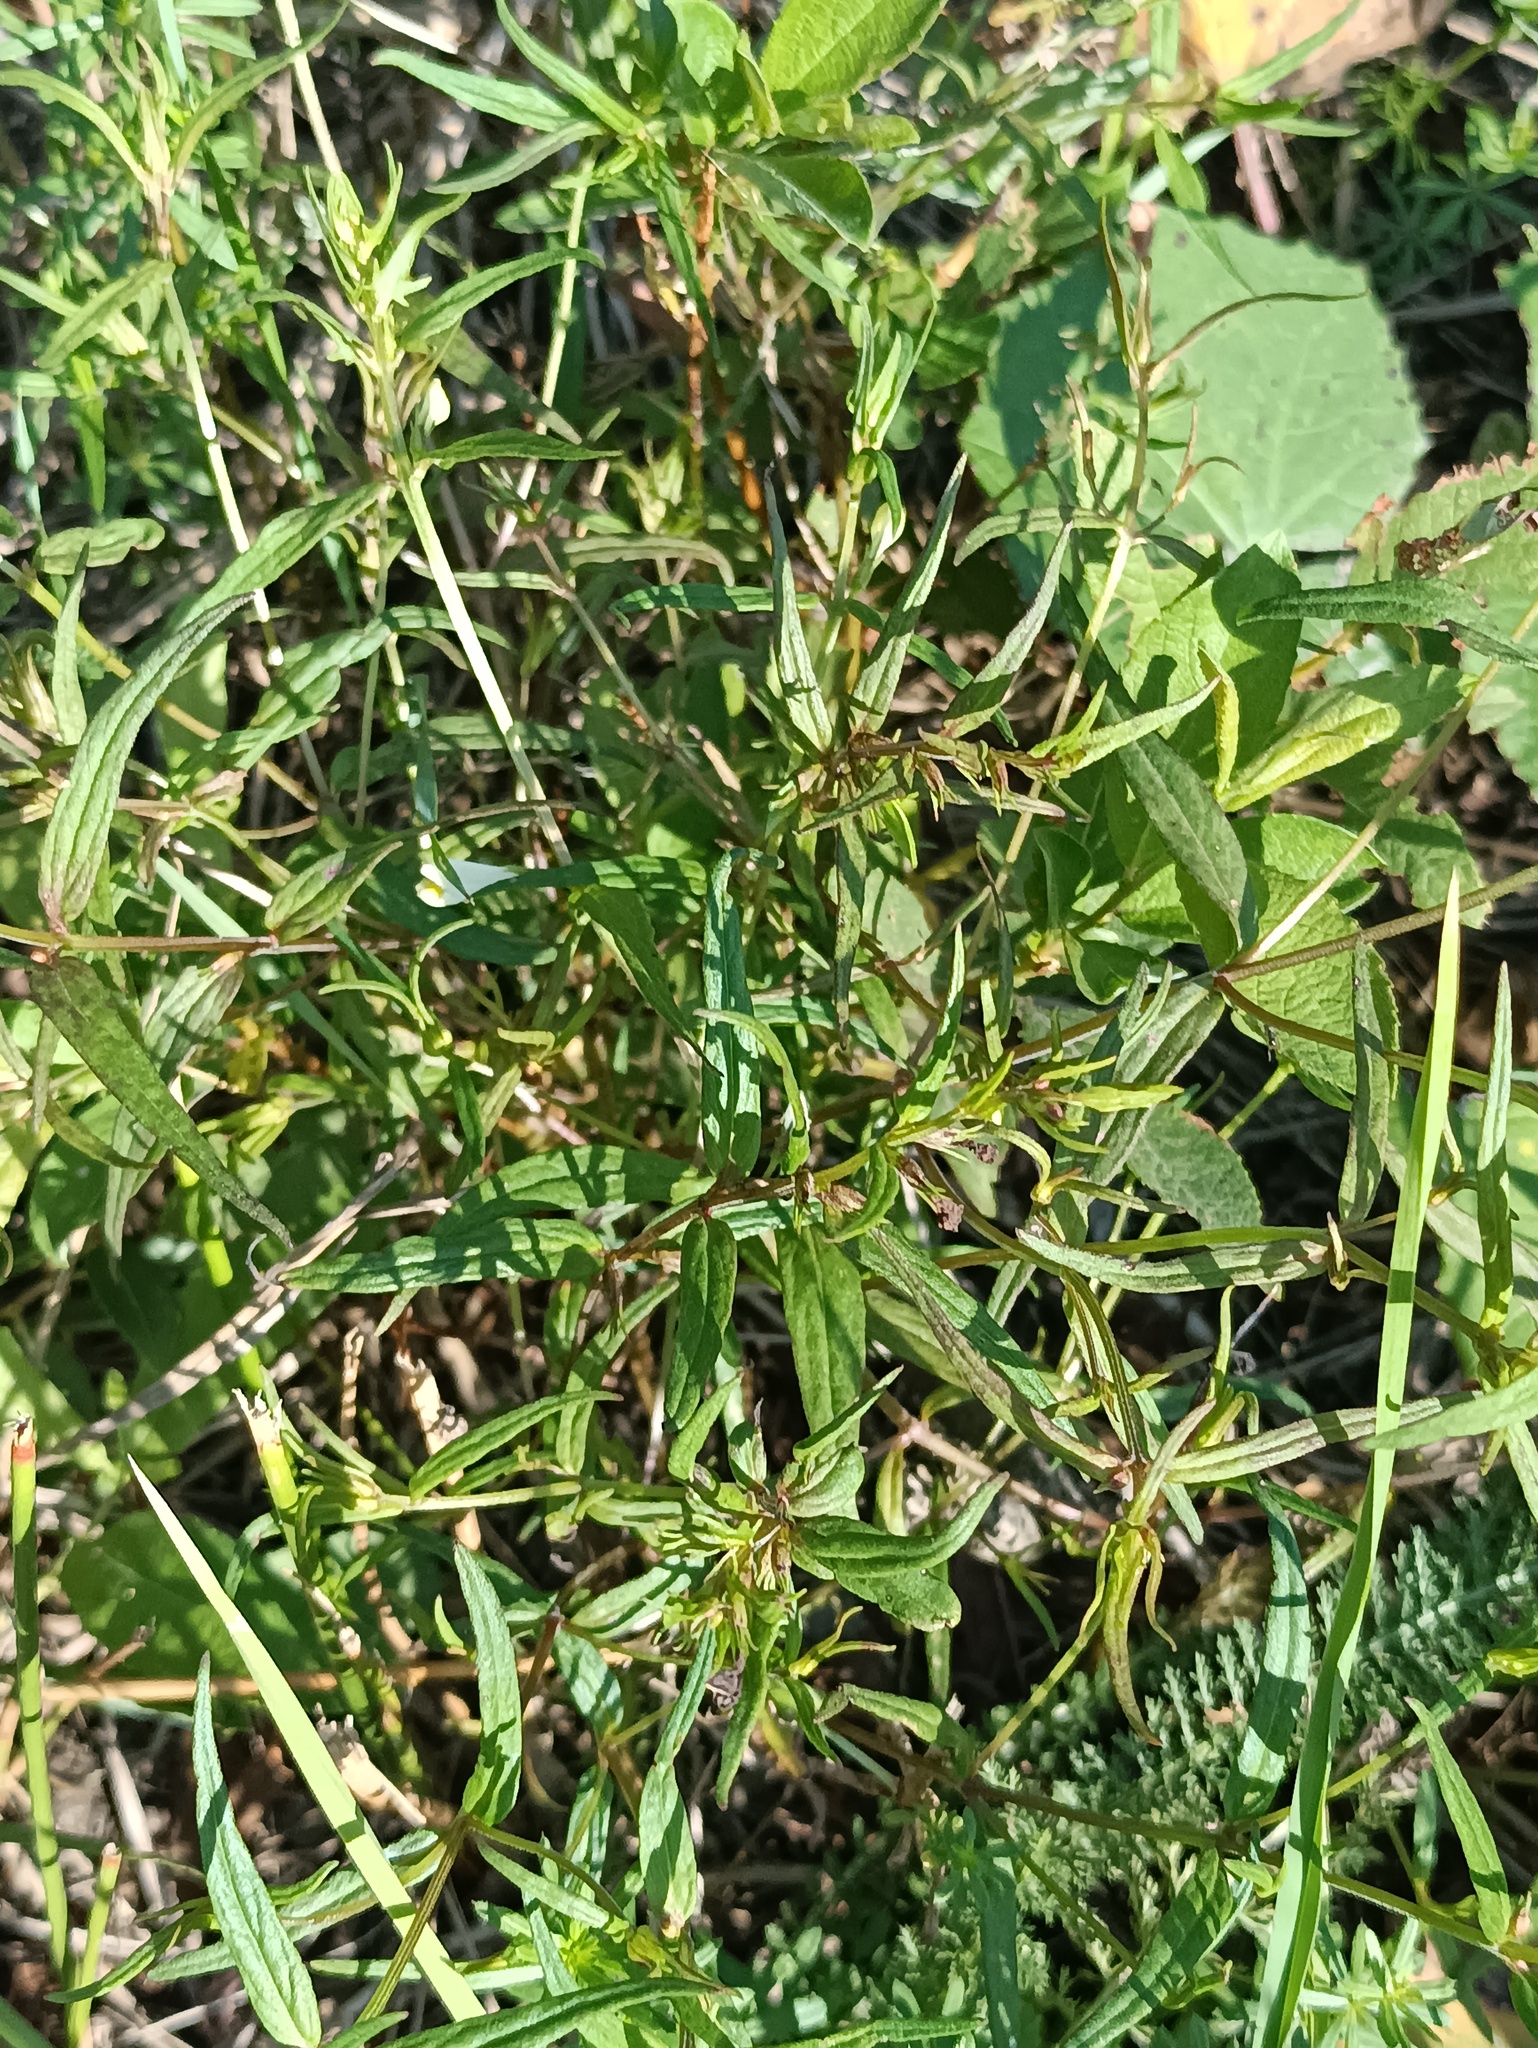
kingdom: Plantae
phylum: Tracheophyta
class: Magnoliopsida
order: Lamiales
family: Orobanchaceae
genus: Melampyrum
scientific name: Melampyrum pratense
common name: Common cow-wheat
